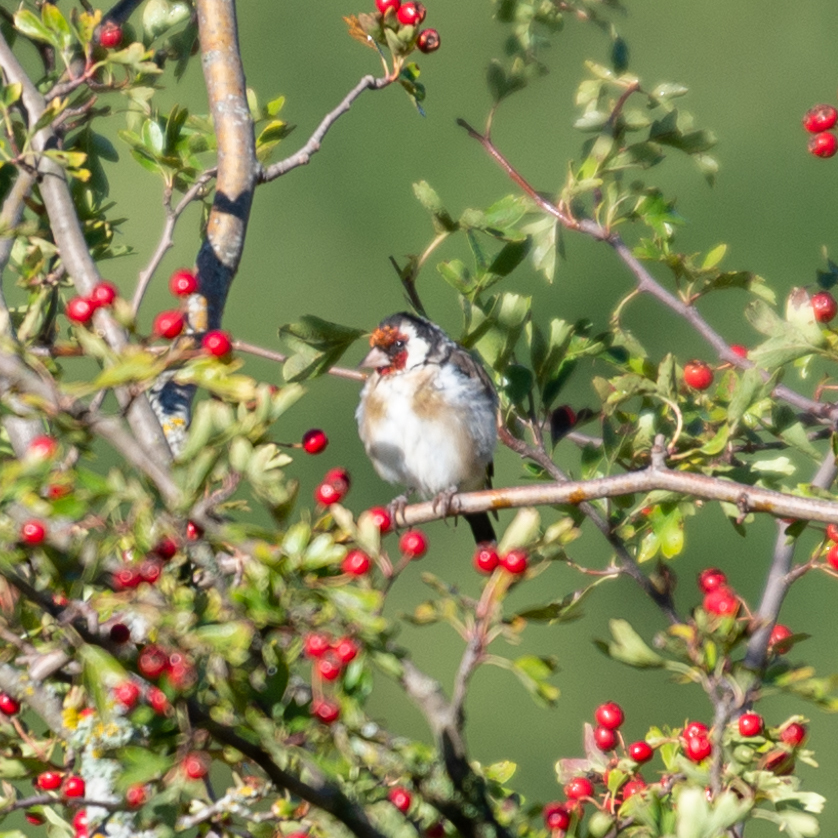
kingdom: Animalia
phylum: Chordata
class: Aves
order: Passeriformes
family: Fringillidae
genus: Carduelis
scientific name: Carduelis carduelis
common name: European goldfinch
